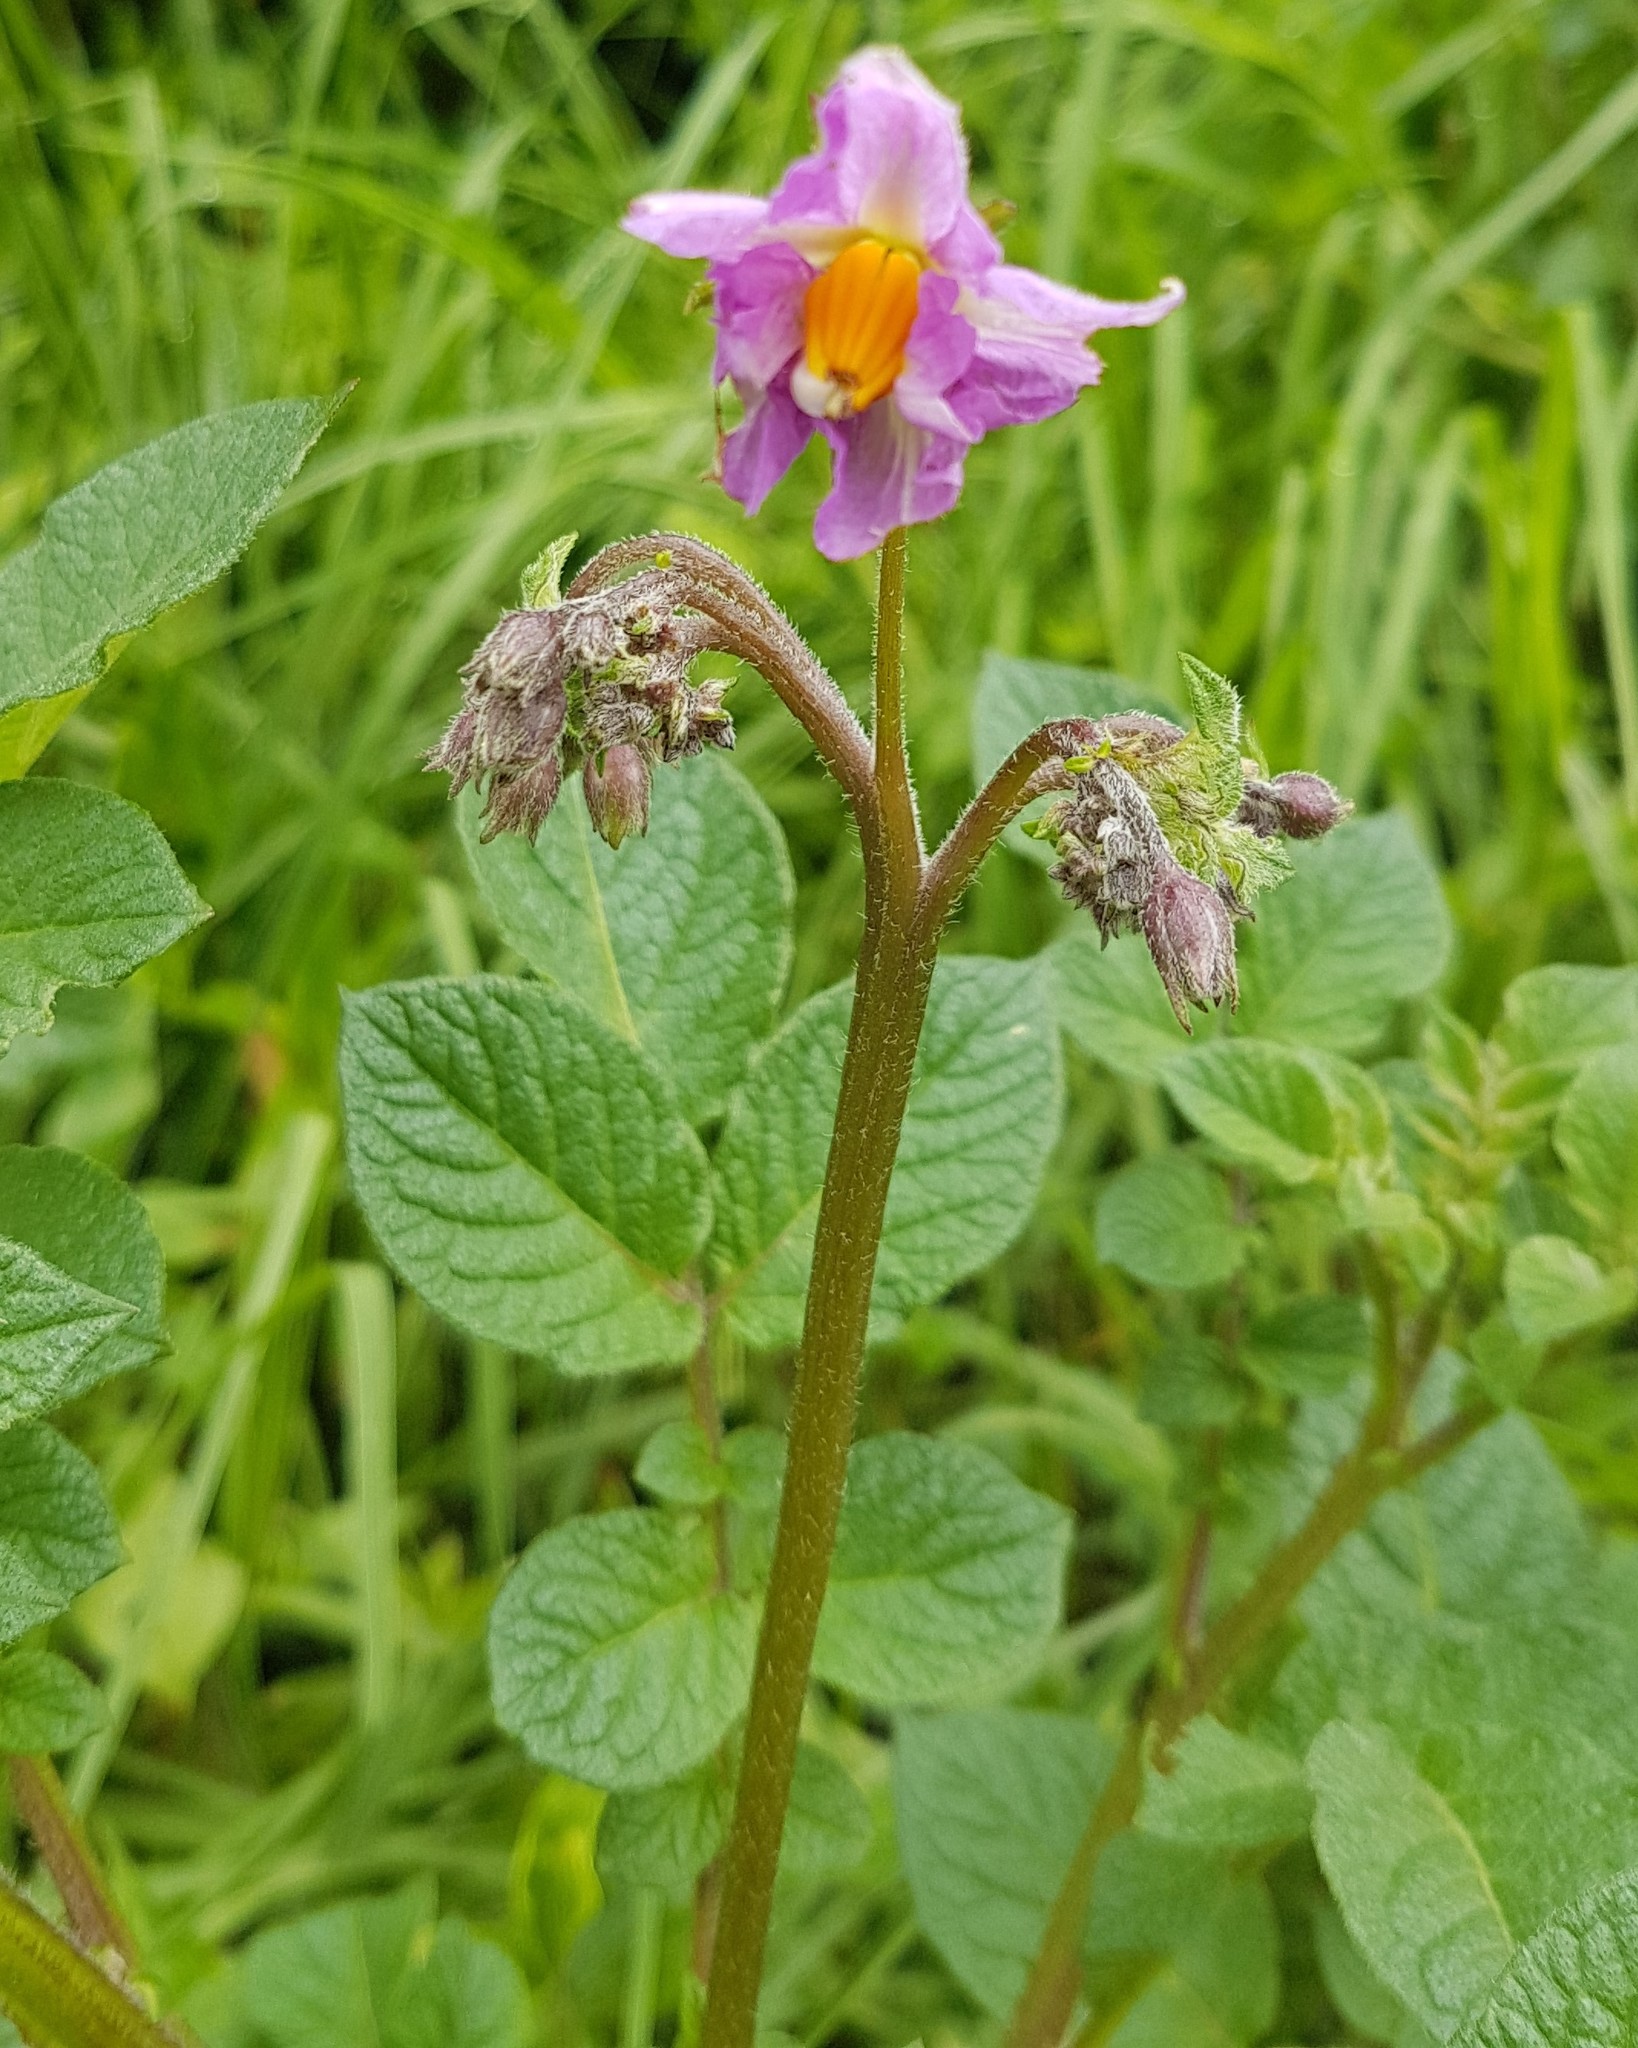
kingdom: Plantae
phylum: Tracheophyta
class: Magnoliopsida
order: Solanales
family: Solanaceae
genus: Solanum
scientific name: Solanum tuberosum
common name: Potato
